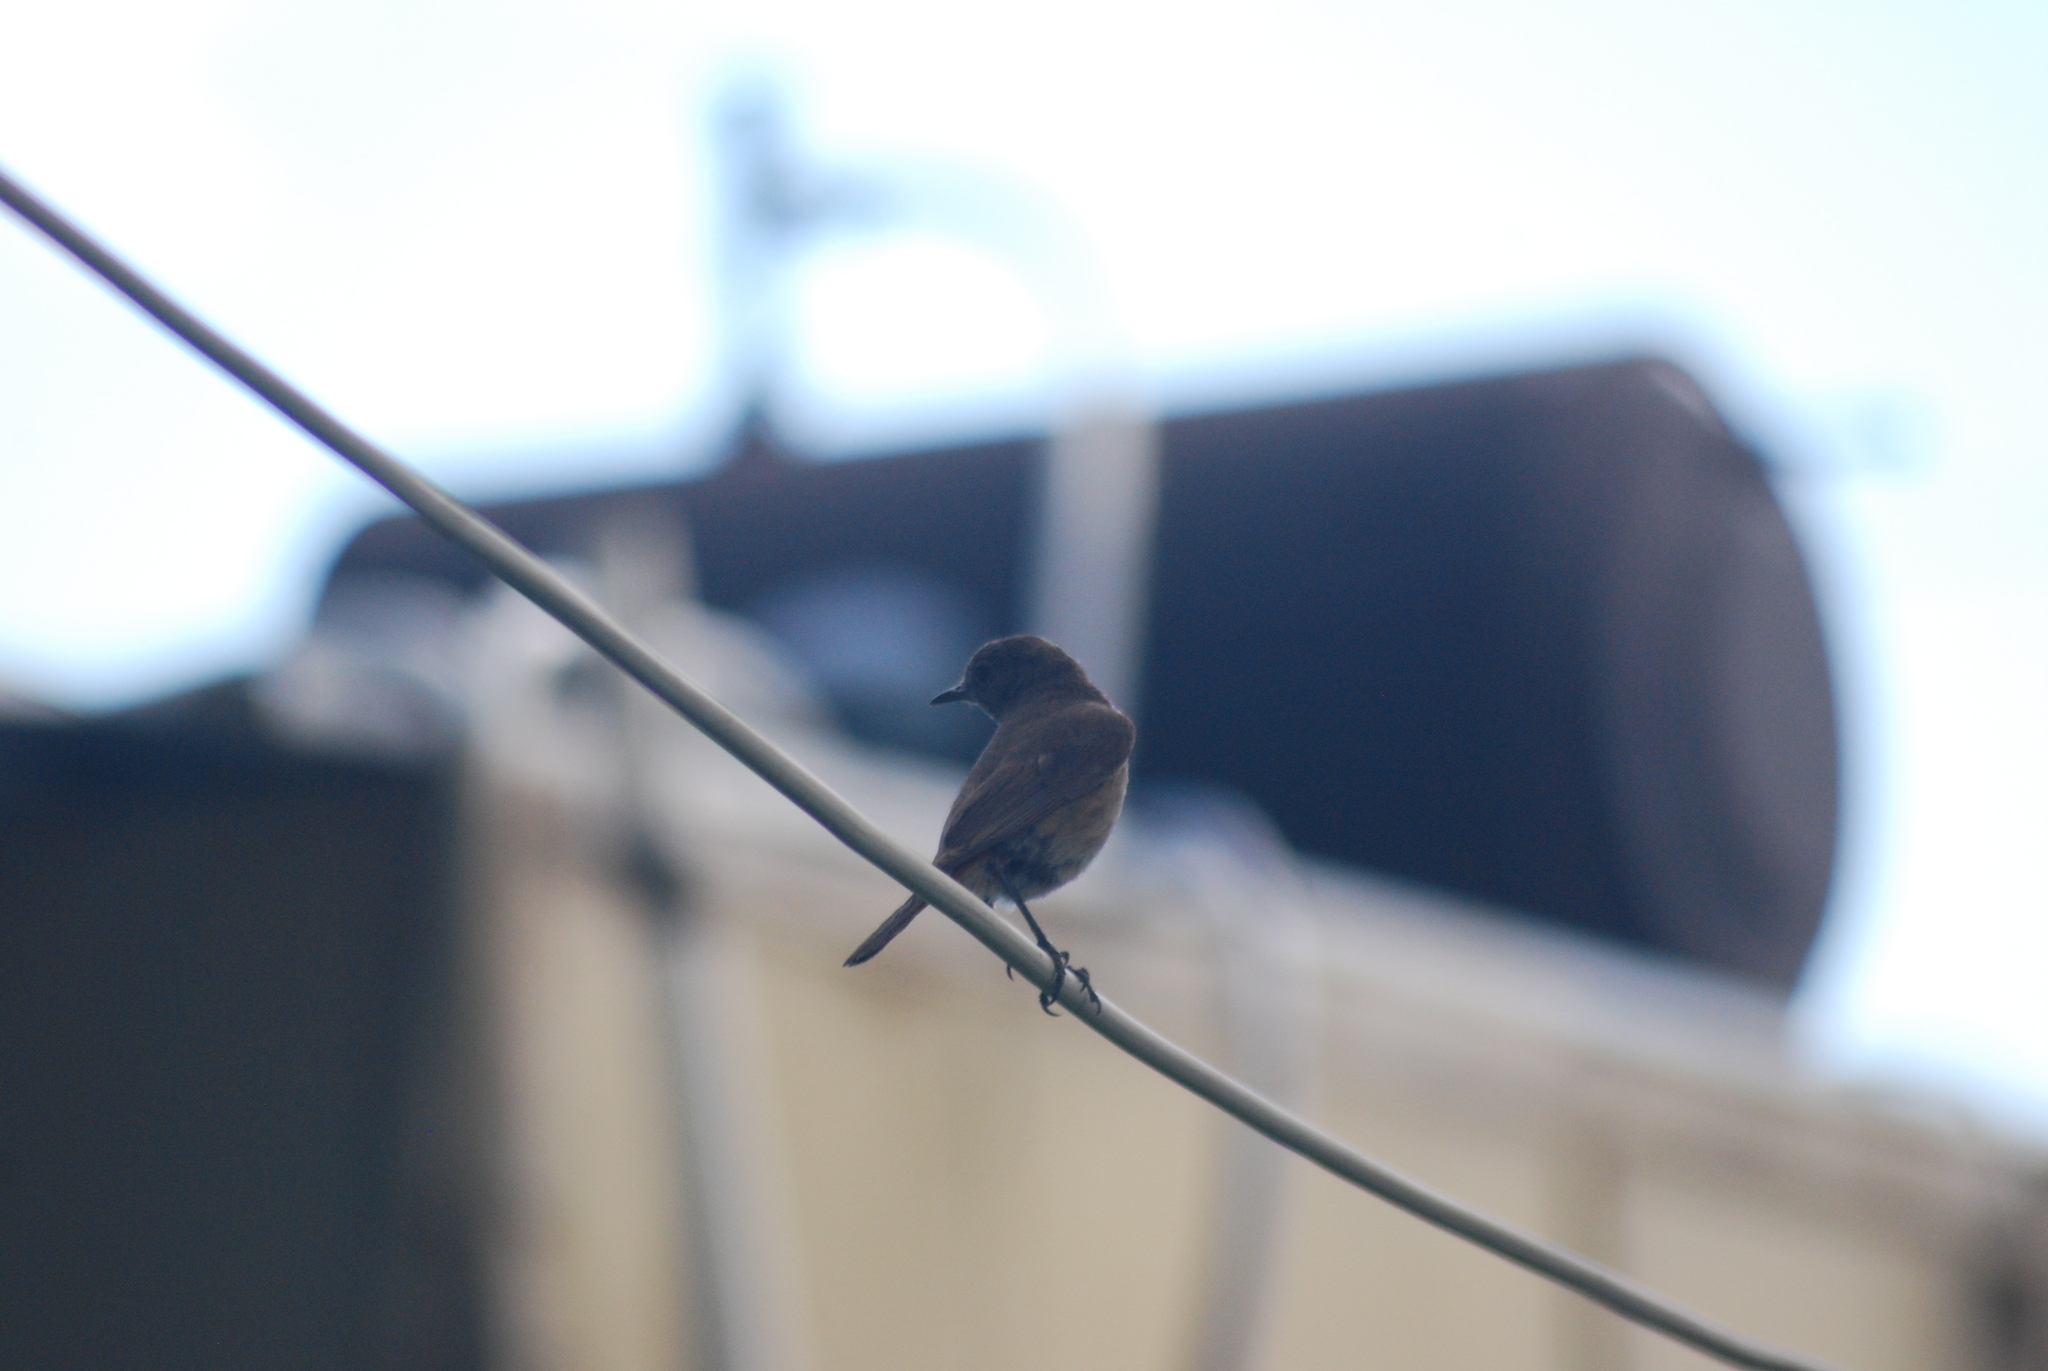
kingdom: Animalia
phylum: Chordata
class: Aves
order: Passeriformes
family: Muscicapidae
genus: Oenanthe
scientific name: Oenanthe familiaris
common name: Familiar chat
